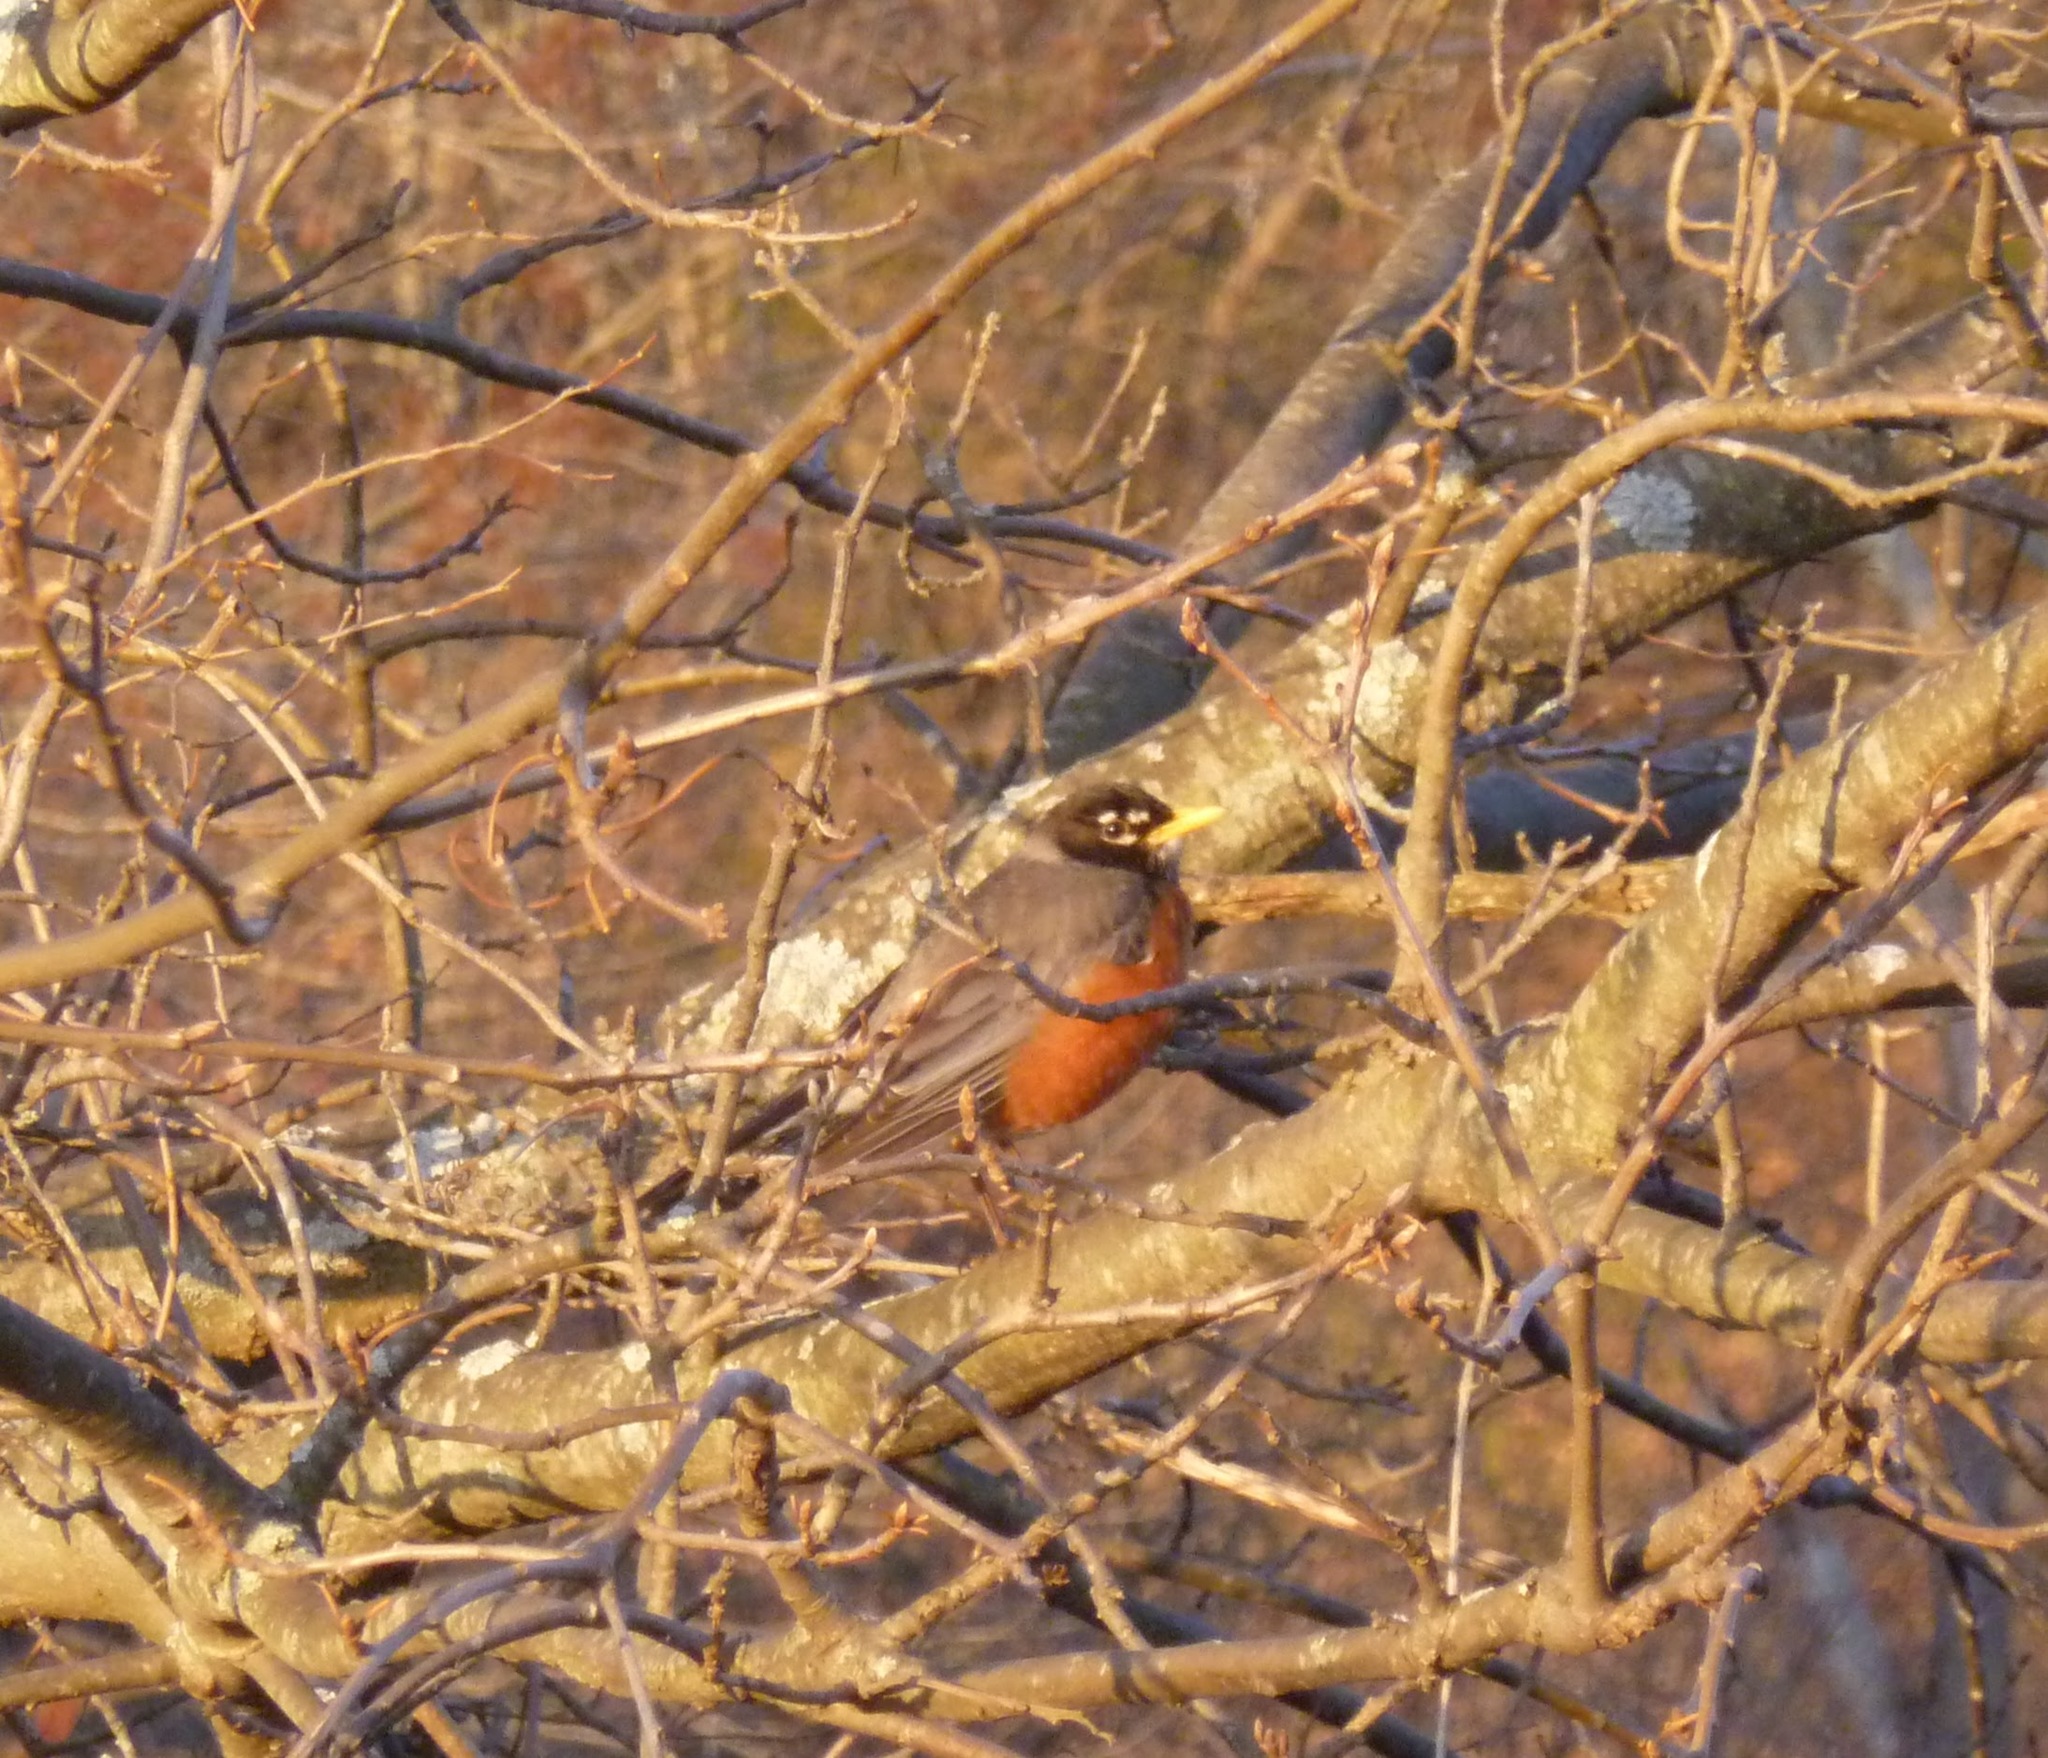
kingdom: Animalia
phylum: Chordata
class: Aves
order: Passeriformes
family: Turdidae
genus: Turdus
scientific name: Turdus migratorius
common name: American robin
